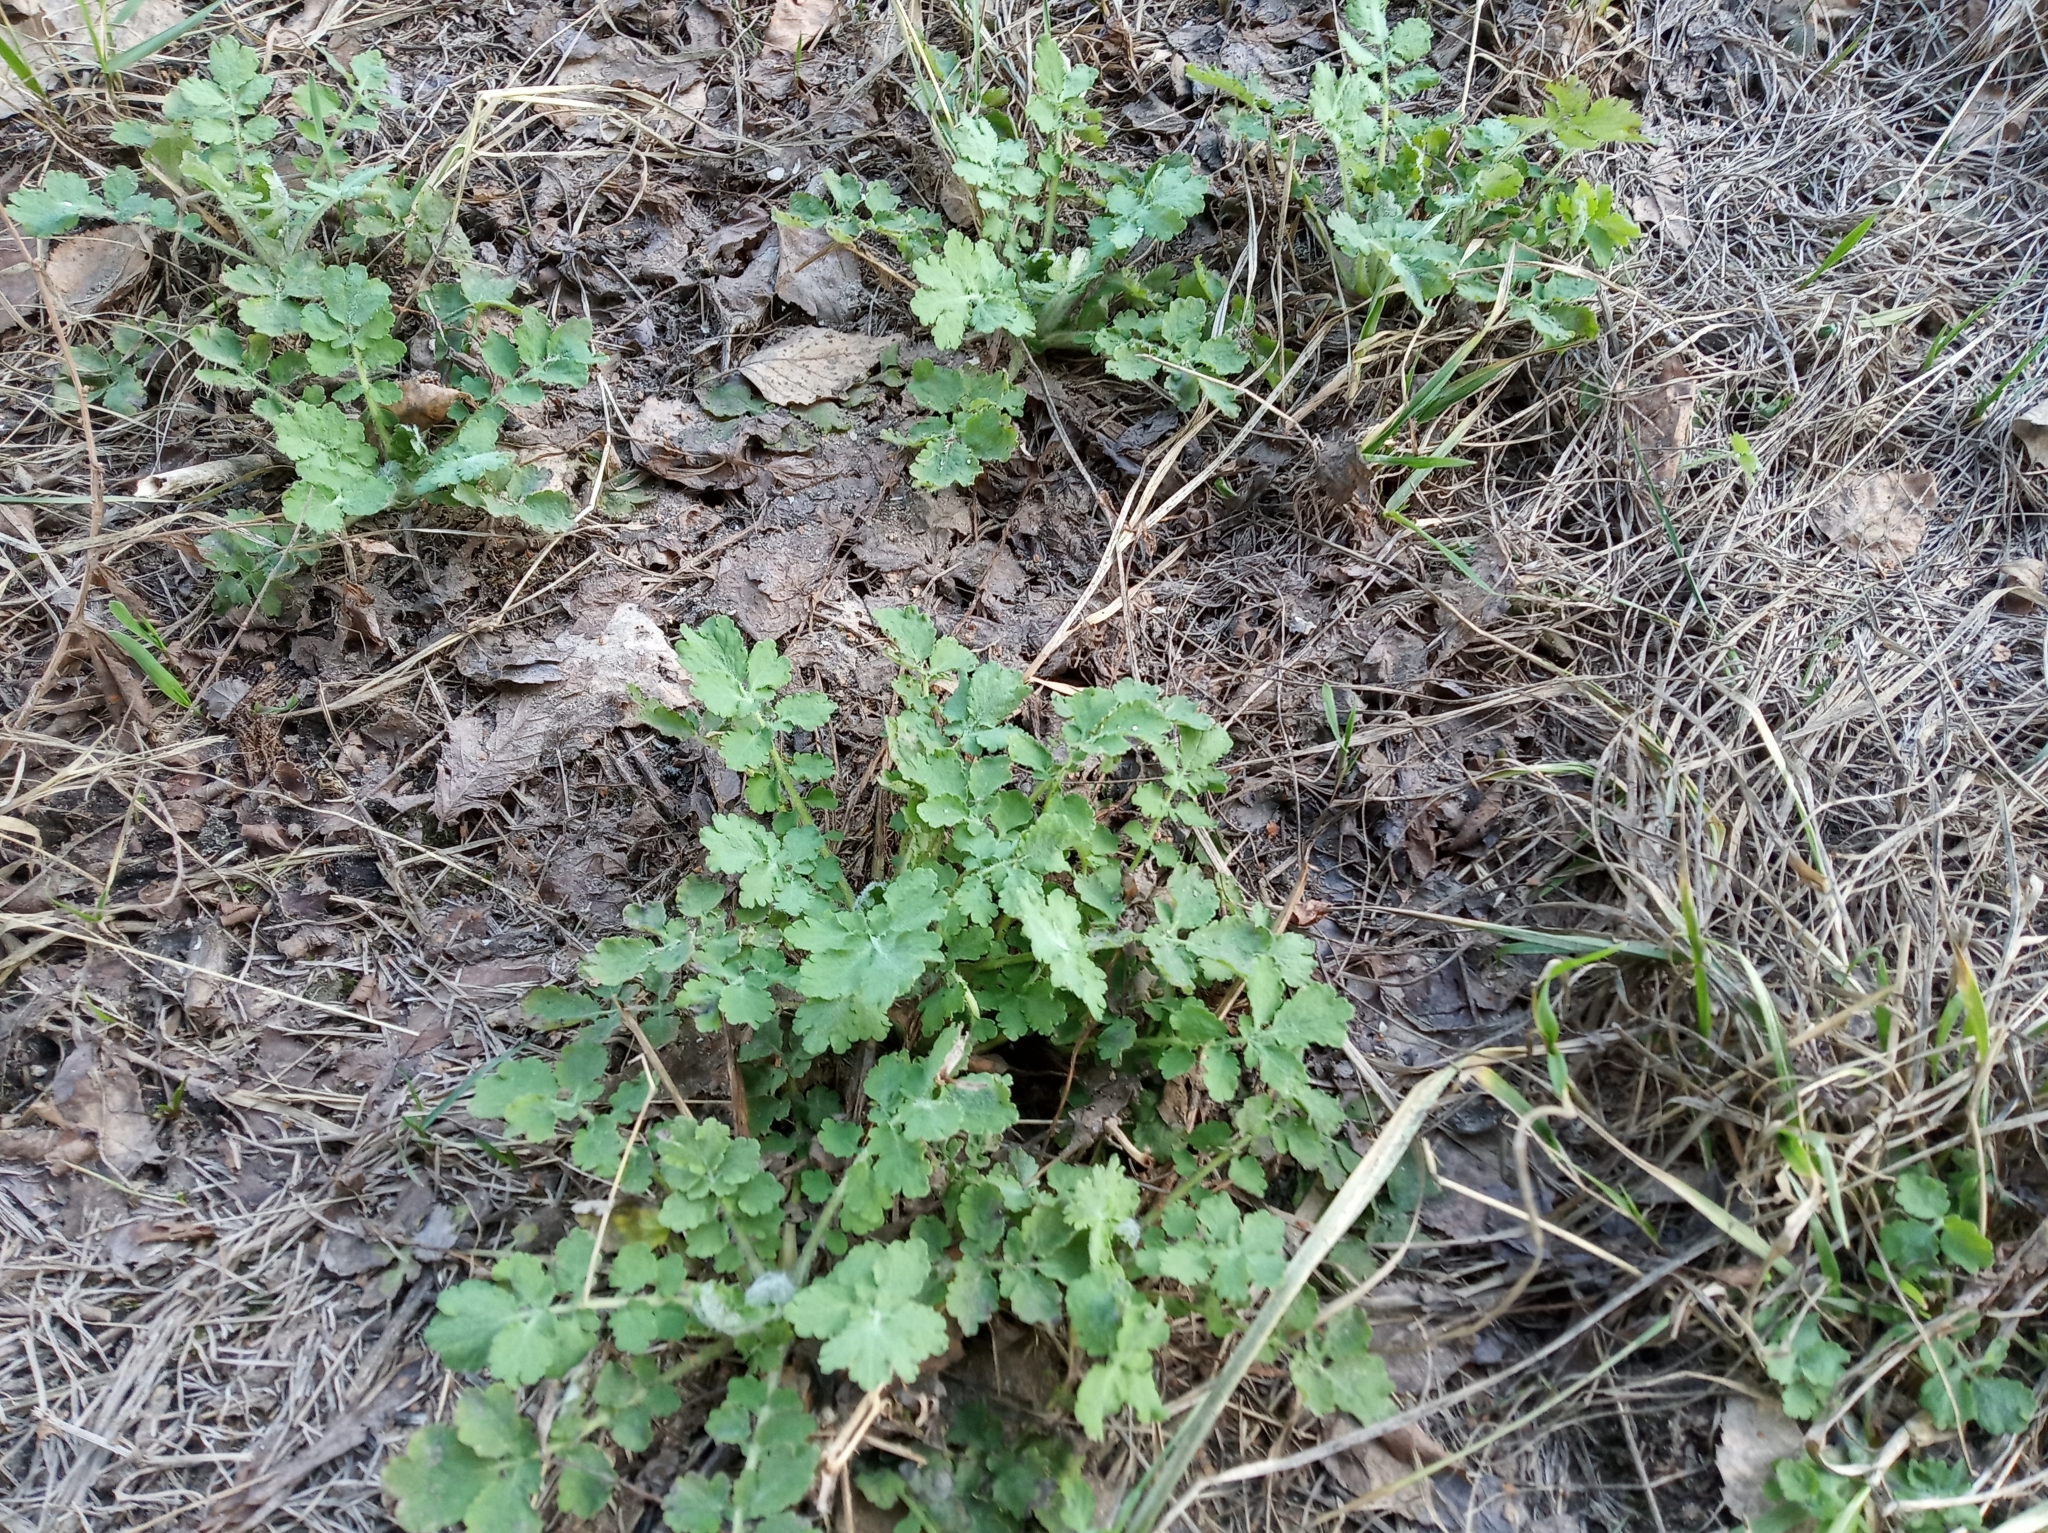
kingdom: Plantae
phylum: Tracheophyta
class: Magnoliopsida
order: Ranunculales
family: Papaveraceae
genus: Chelidonium
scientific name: Chelidonium majus
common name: Greater celandine
